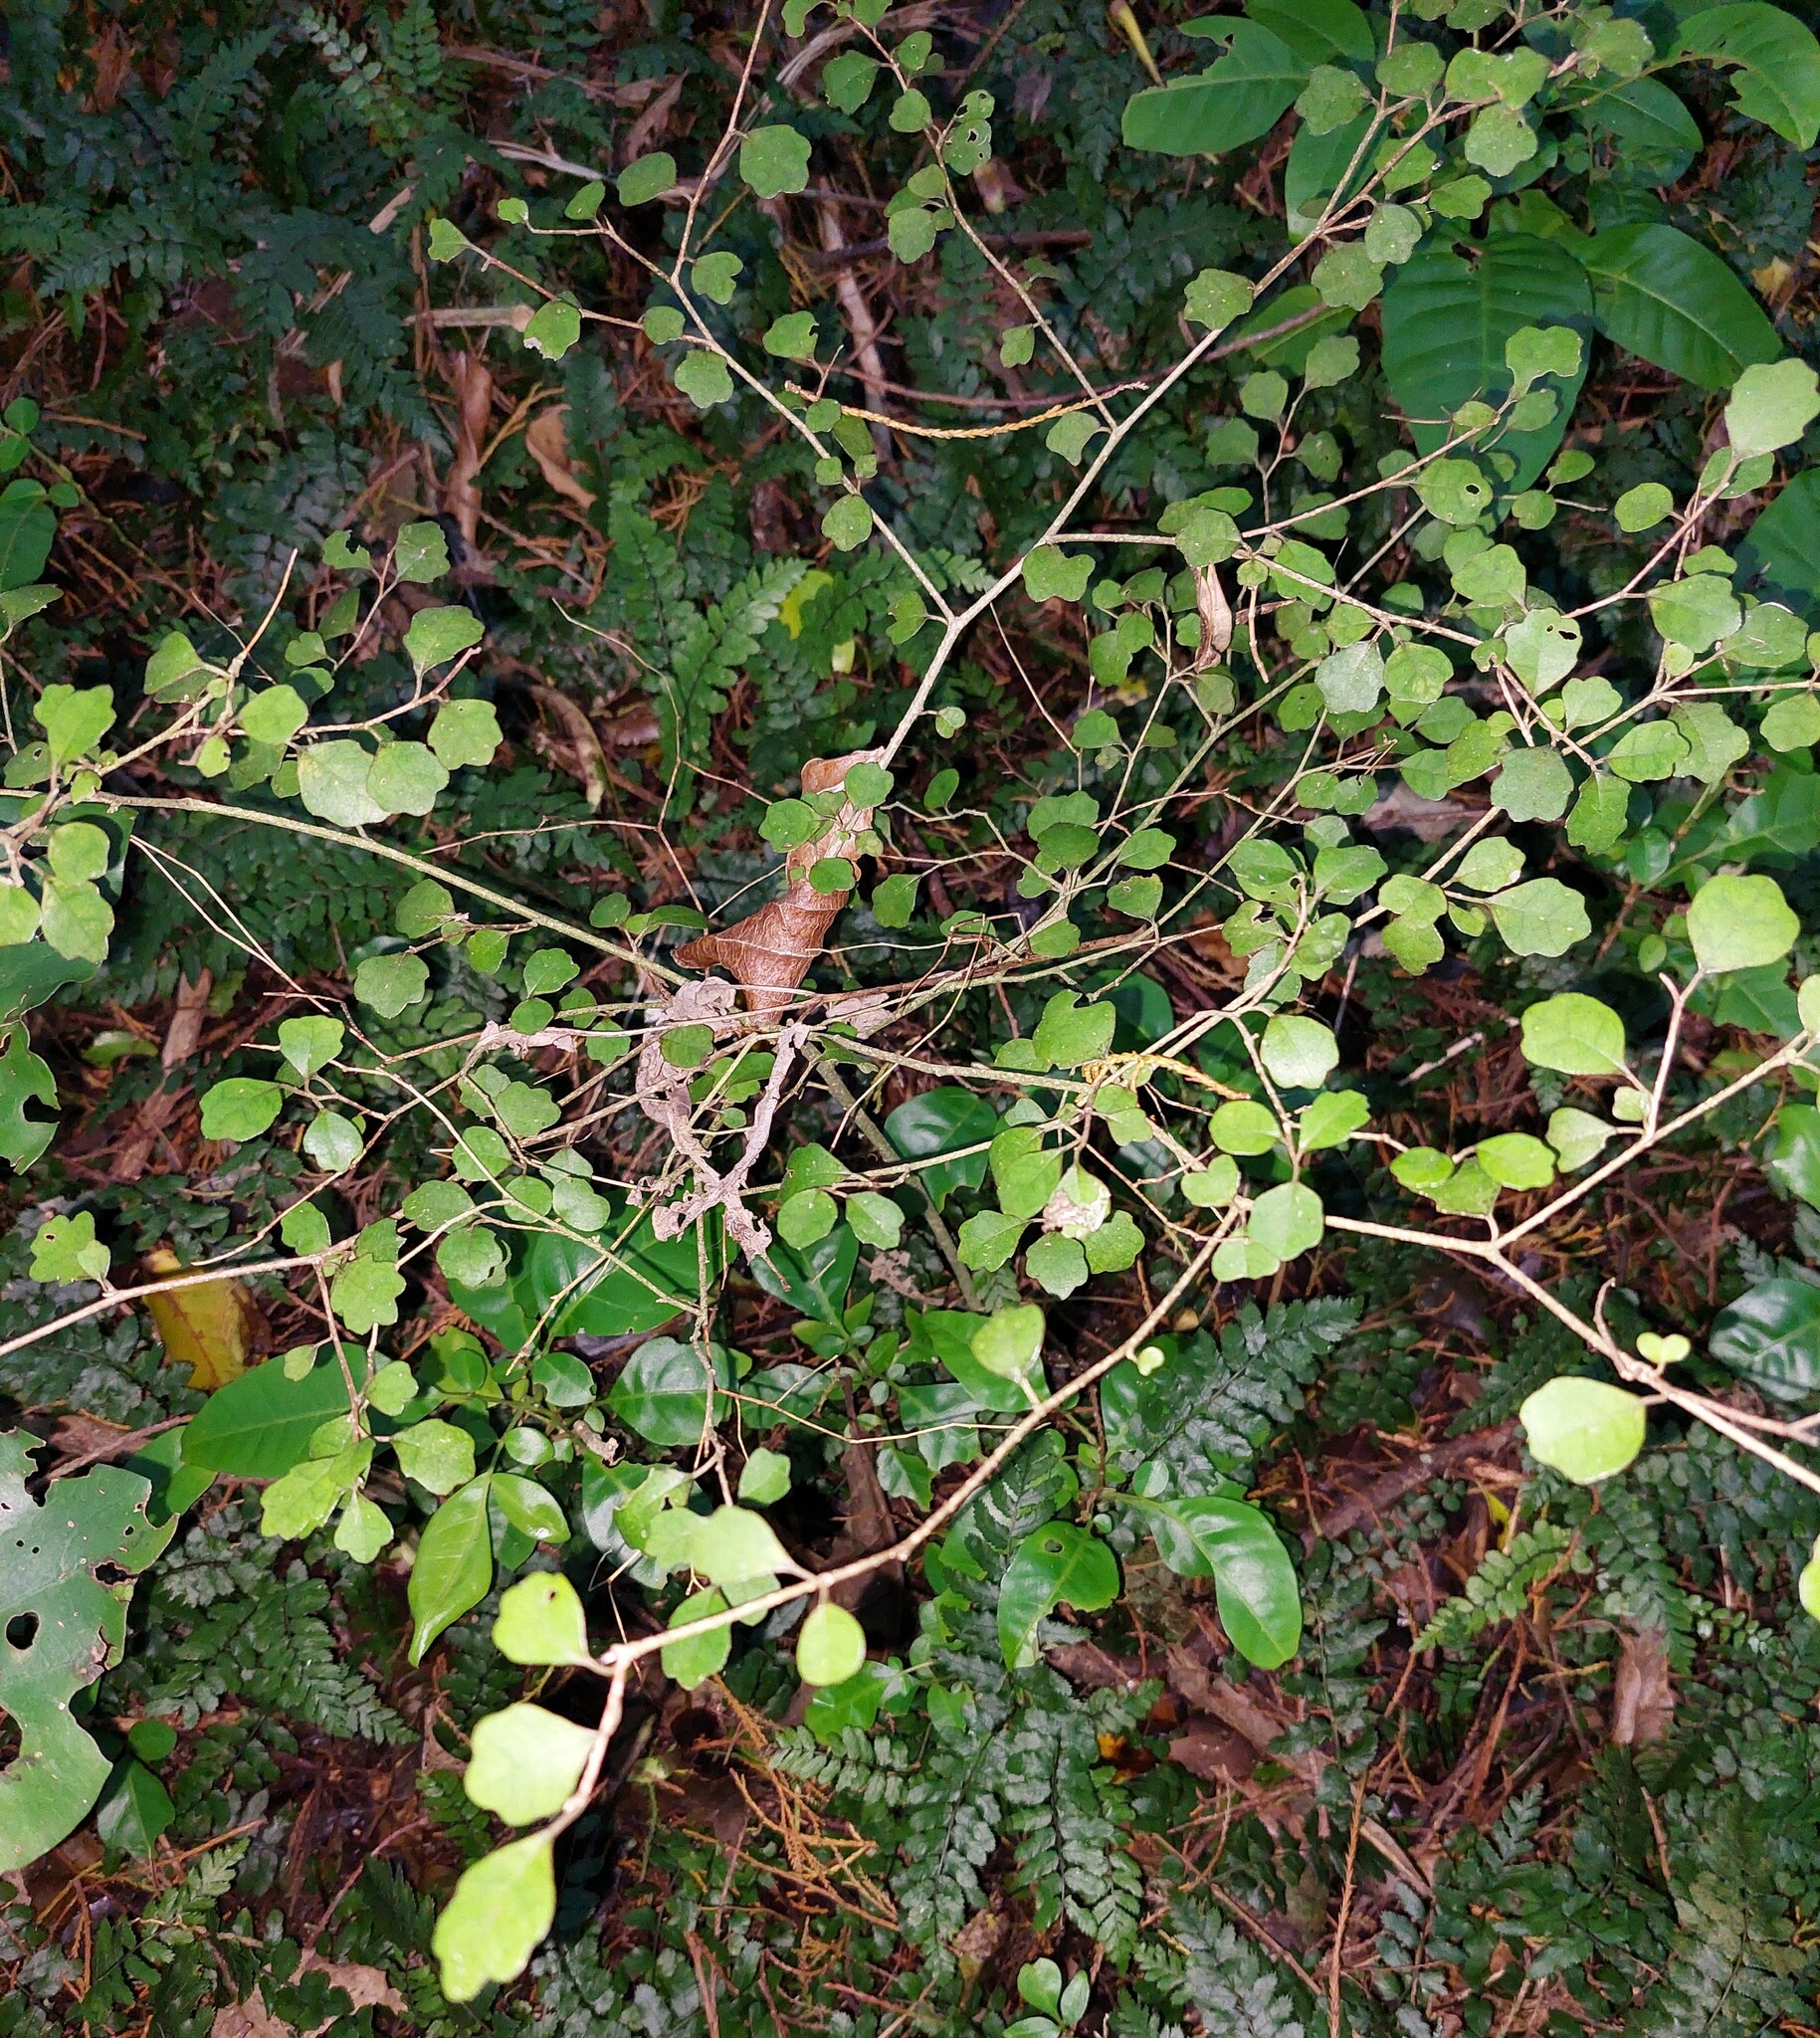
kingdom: Plantae
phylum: Tracheophyta
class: Magnoliopsida
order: Apiales
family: Pennantiaceae
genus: Pennantia
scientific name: Pennantia corymbosa
